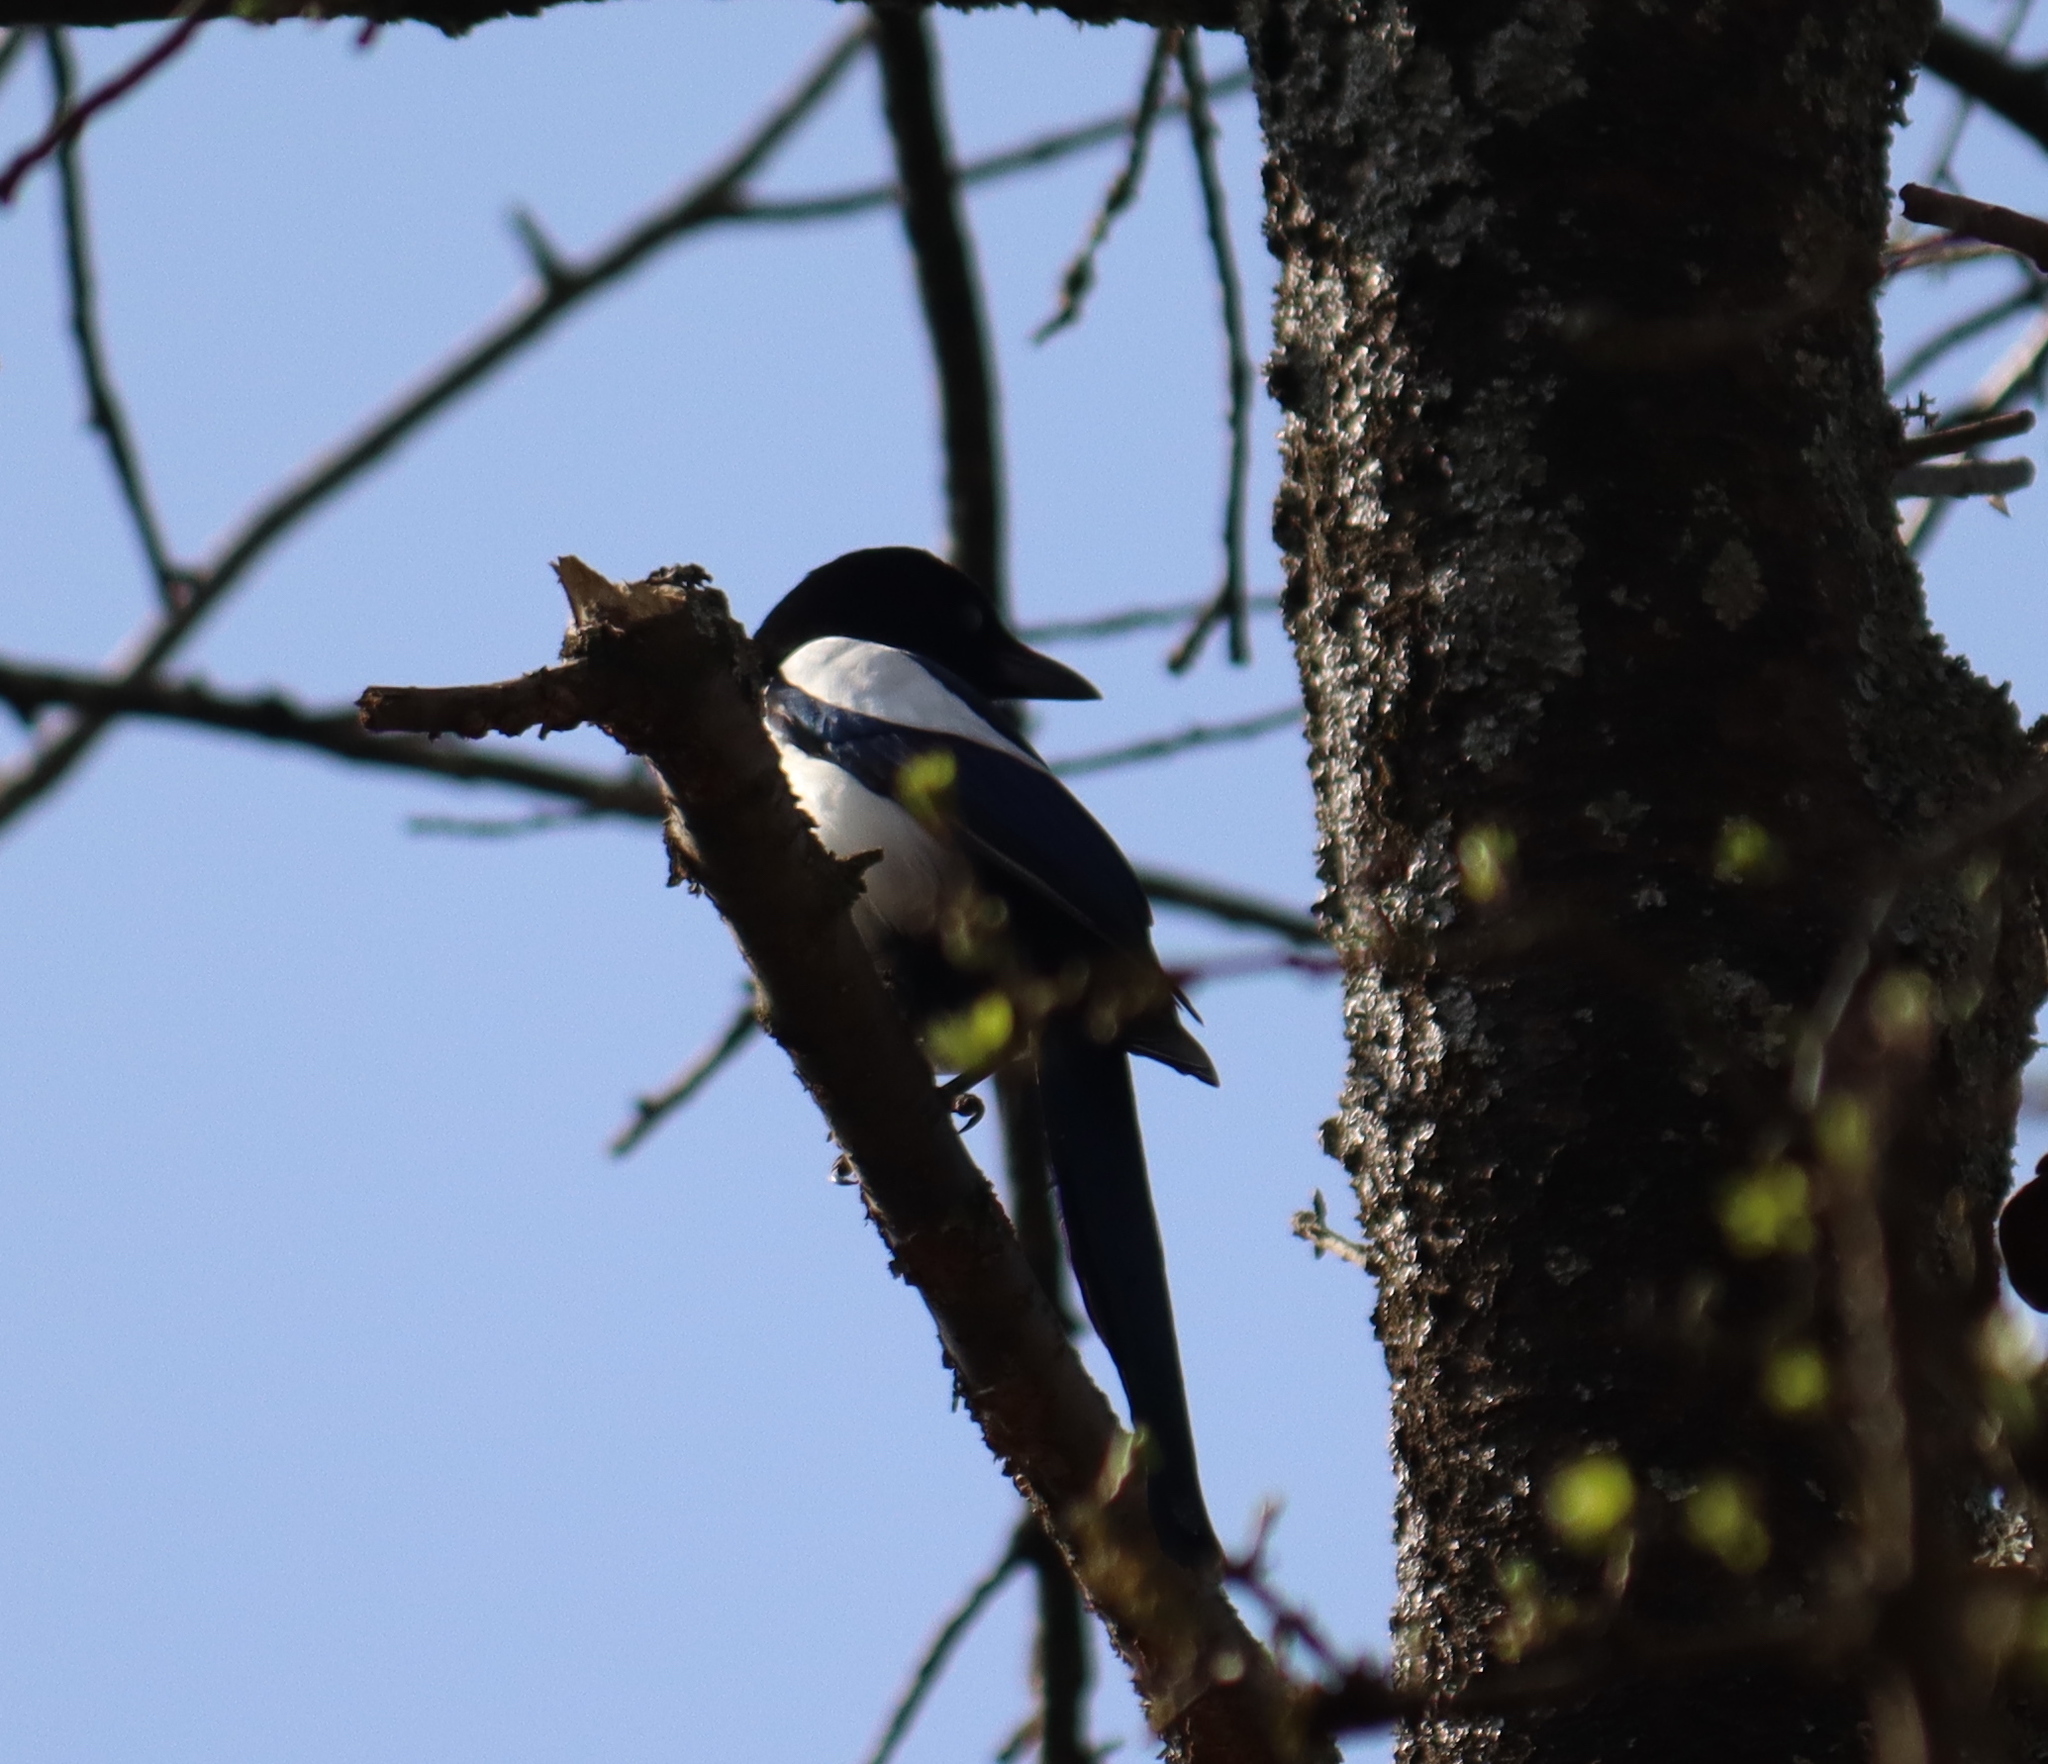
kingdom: Animalia
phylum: Chordata
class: Aves
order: Passeriformes
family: Corvidae
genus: Pica
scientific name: Pica pica
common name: Eurasian magpie
